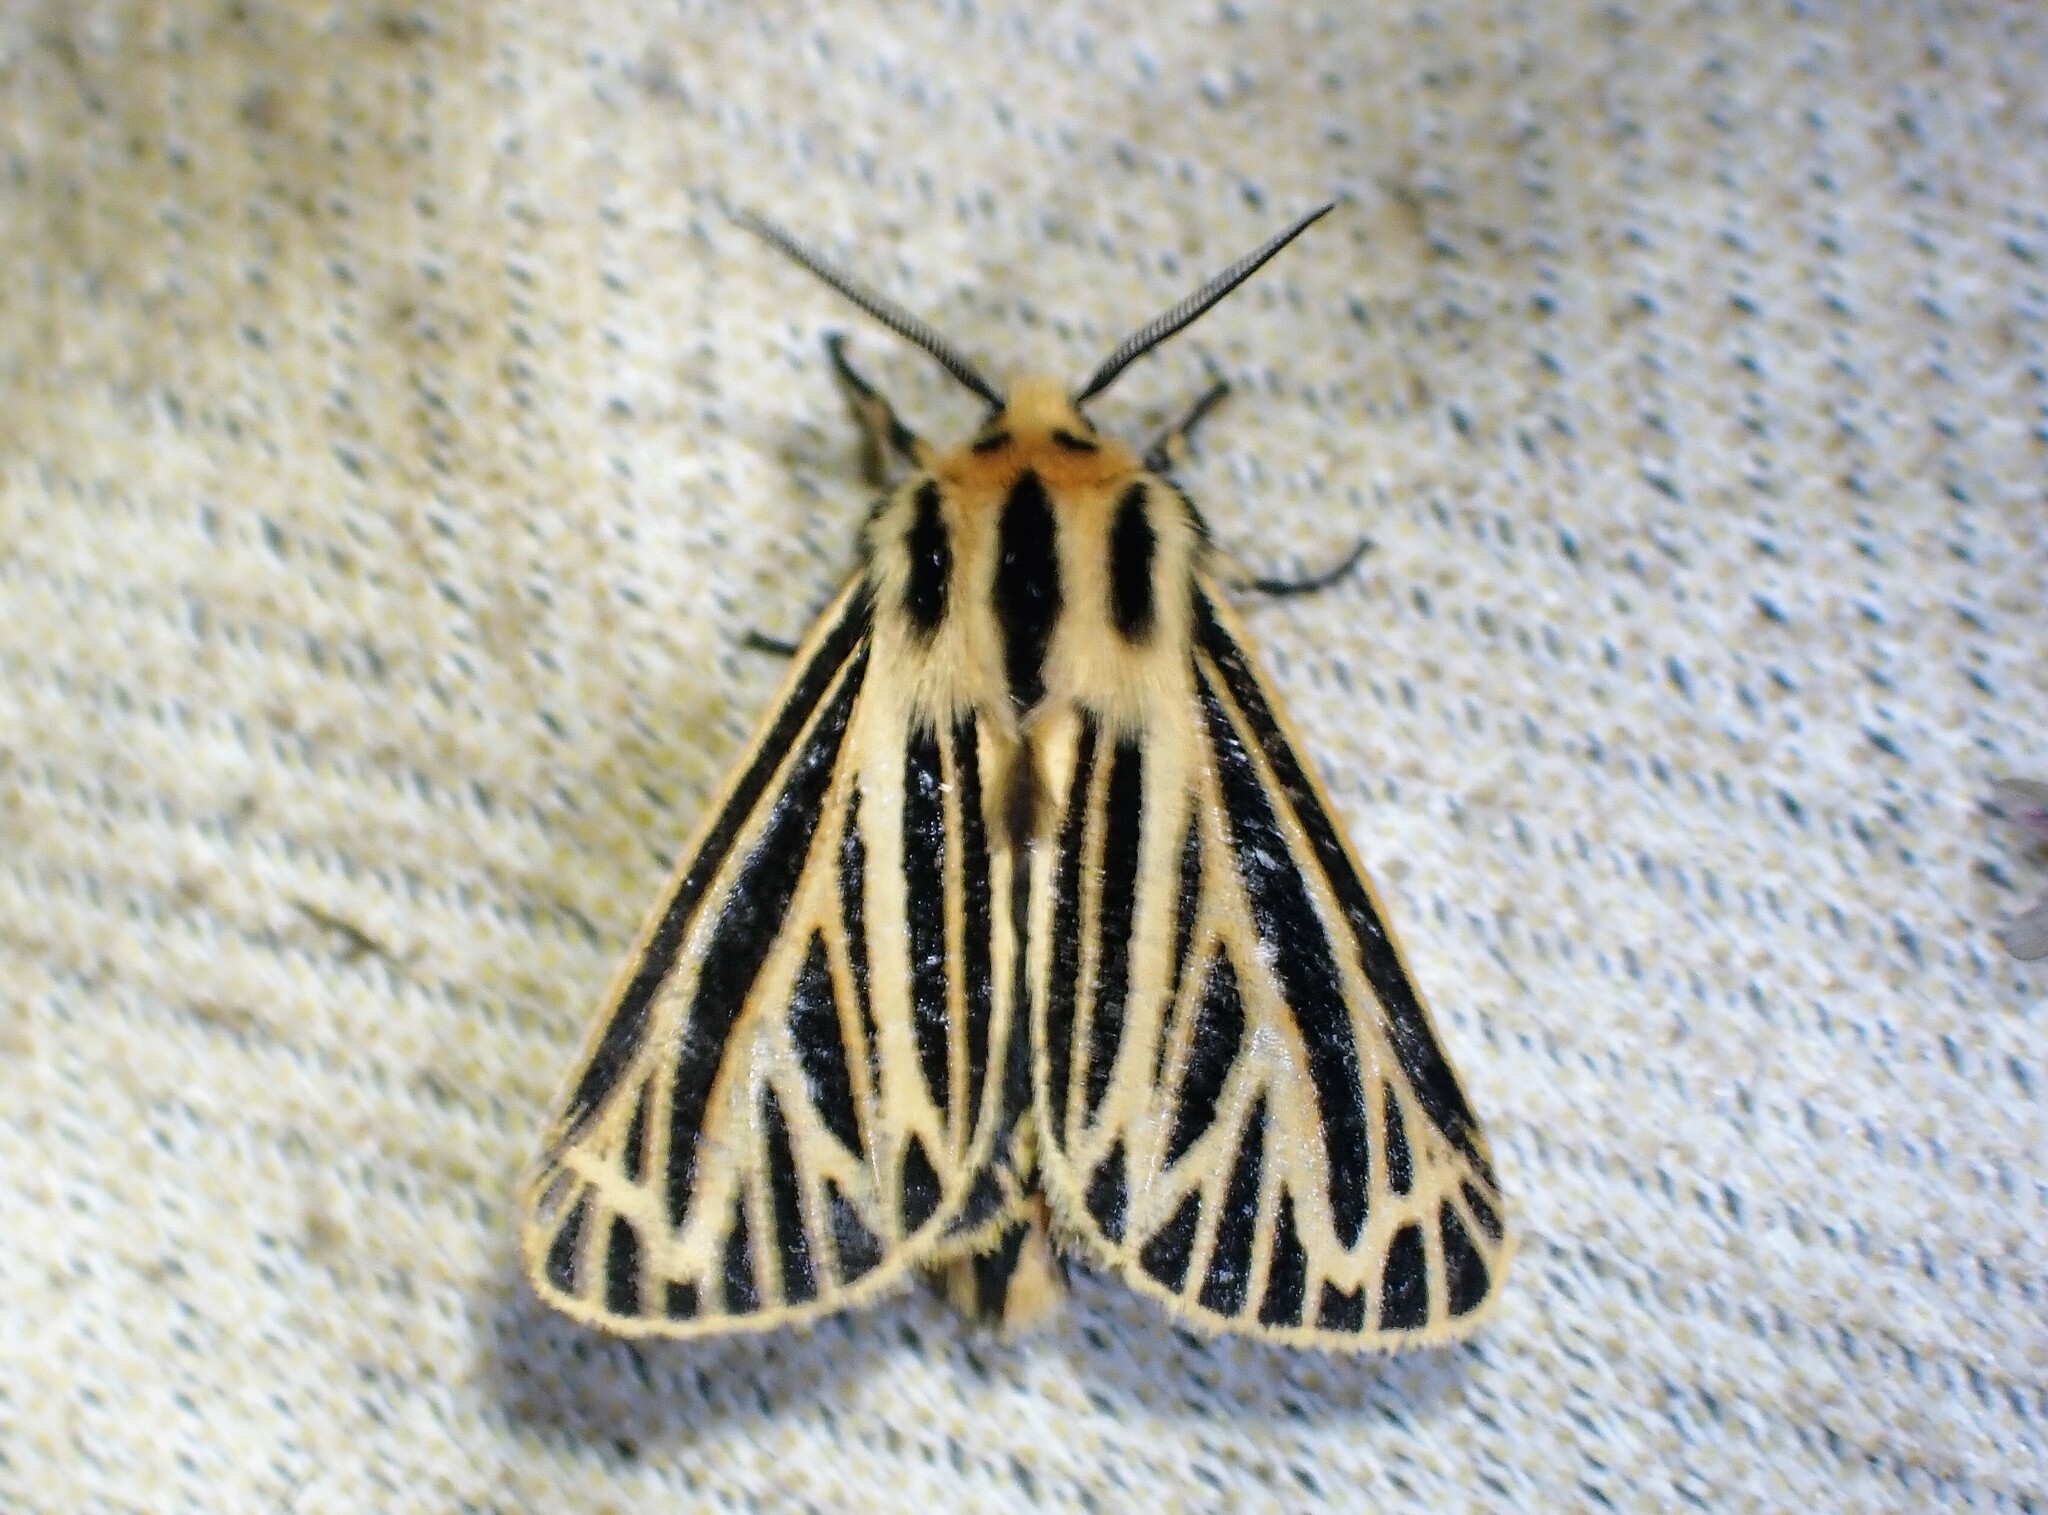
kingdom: Animalia
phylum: Arthropoda
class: Insecta
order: Lepidoptera
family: Erebidae
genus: Grammia
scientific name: Grammia virguncula
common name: Little tiger moth
